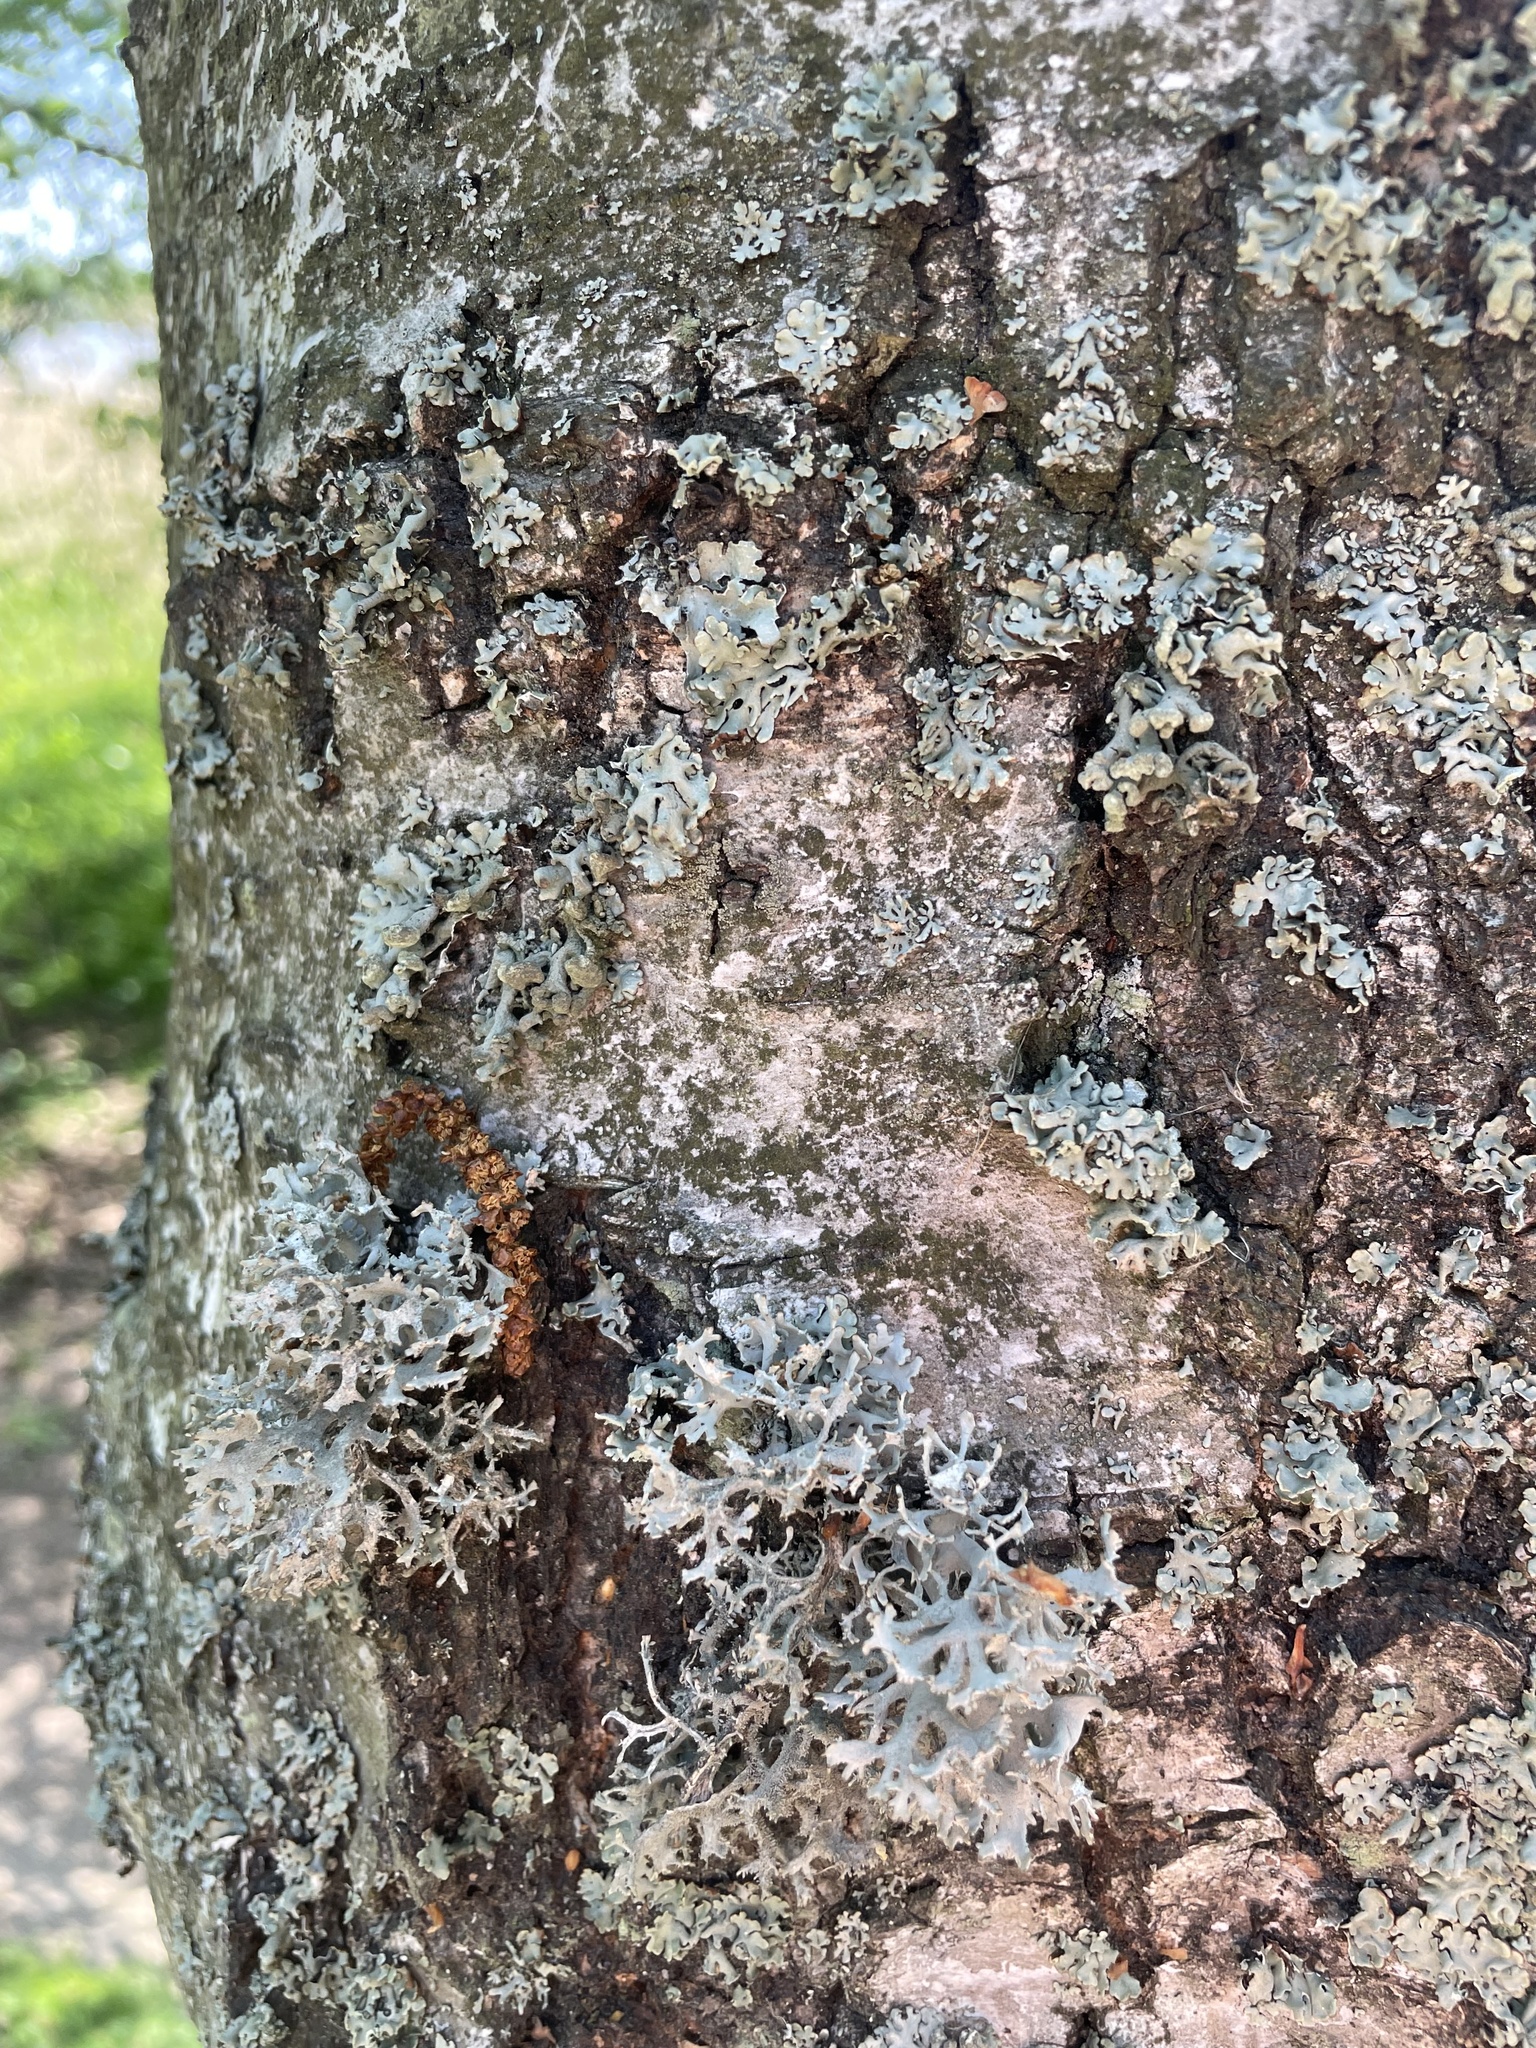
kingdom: Fungi
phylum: Ascomycota
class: Lecanoromycetes
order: Lecanorales
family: Parmeliaceae
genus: Pseudevernia
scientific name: Pseudevernia furfuracea
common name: Tree moss
